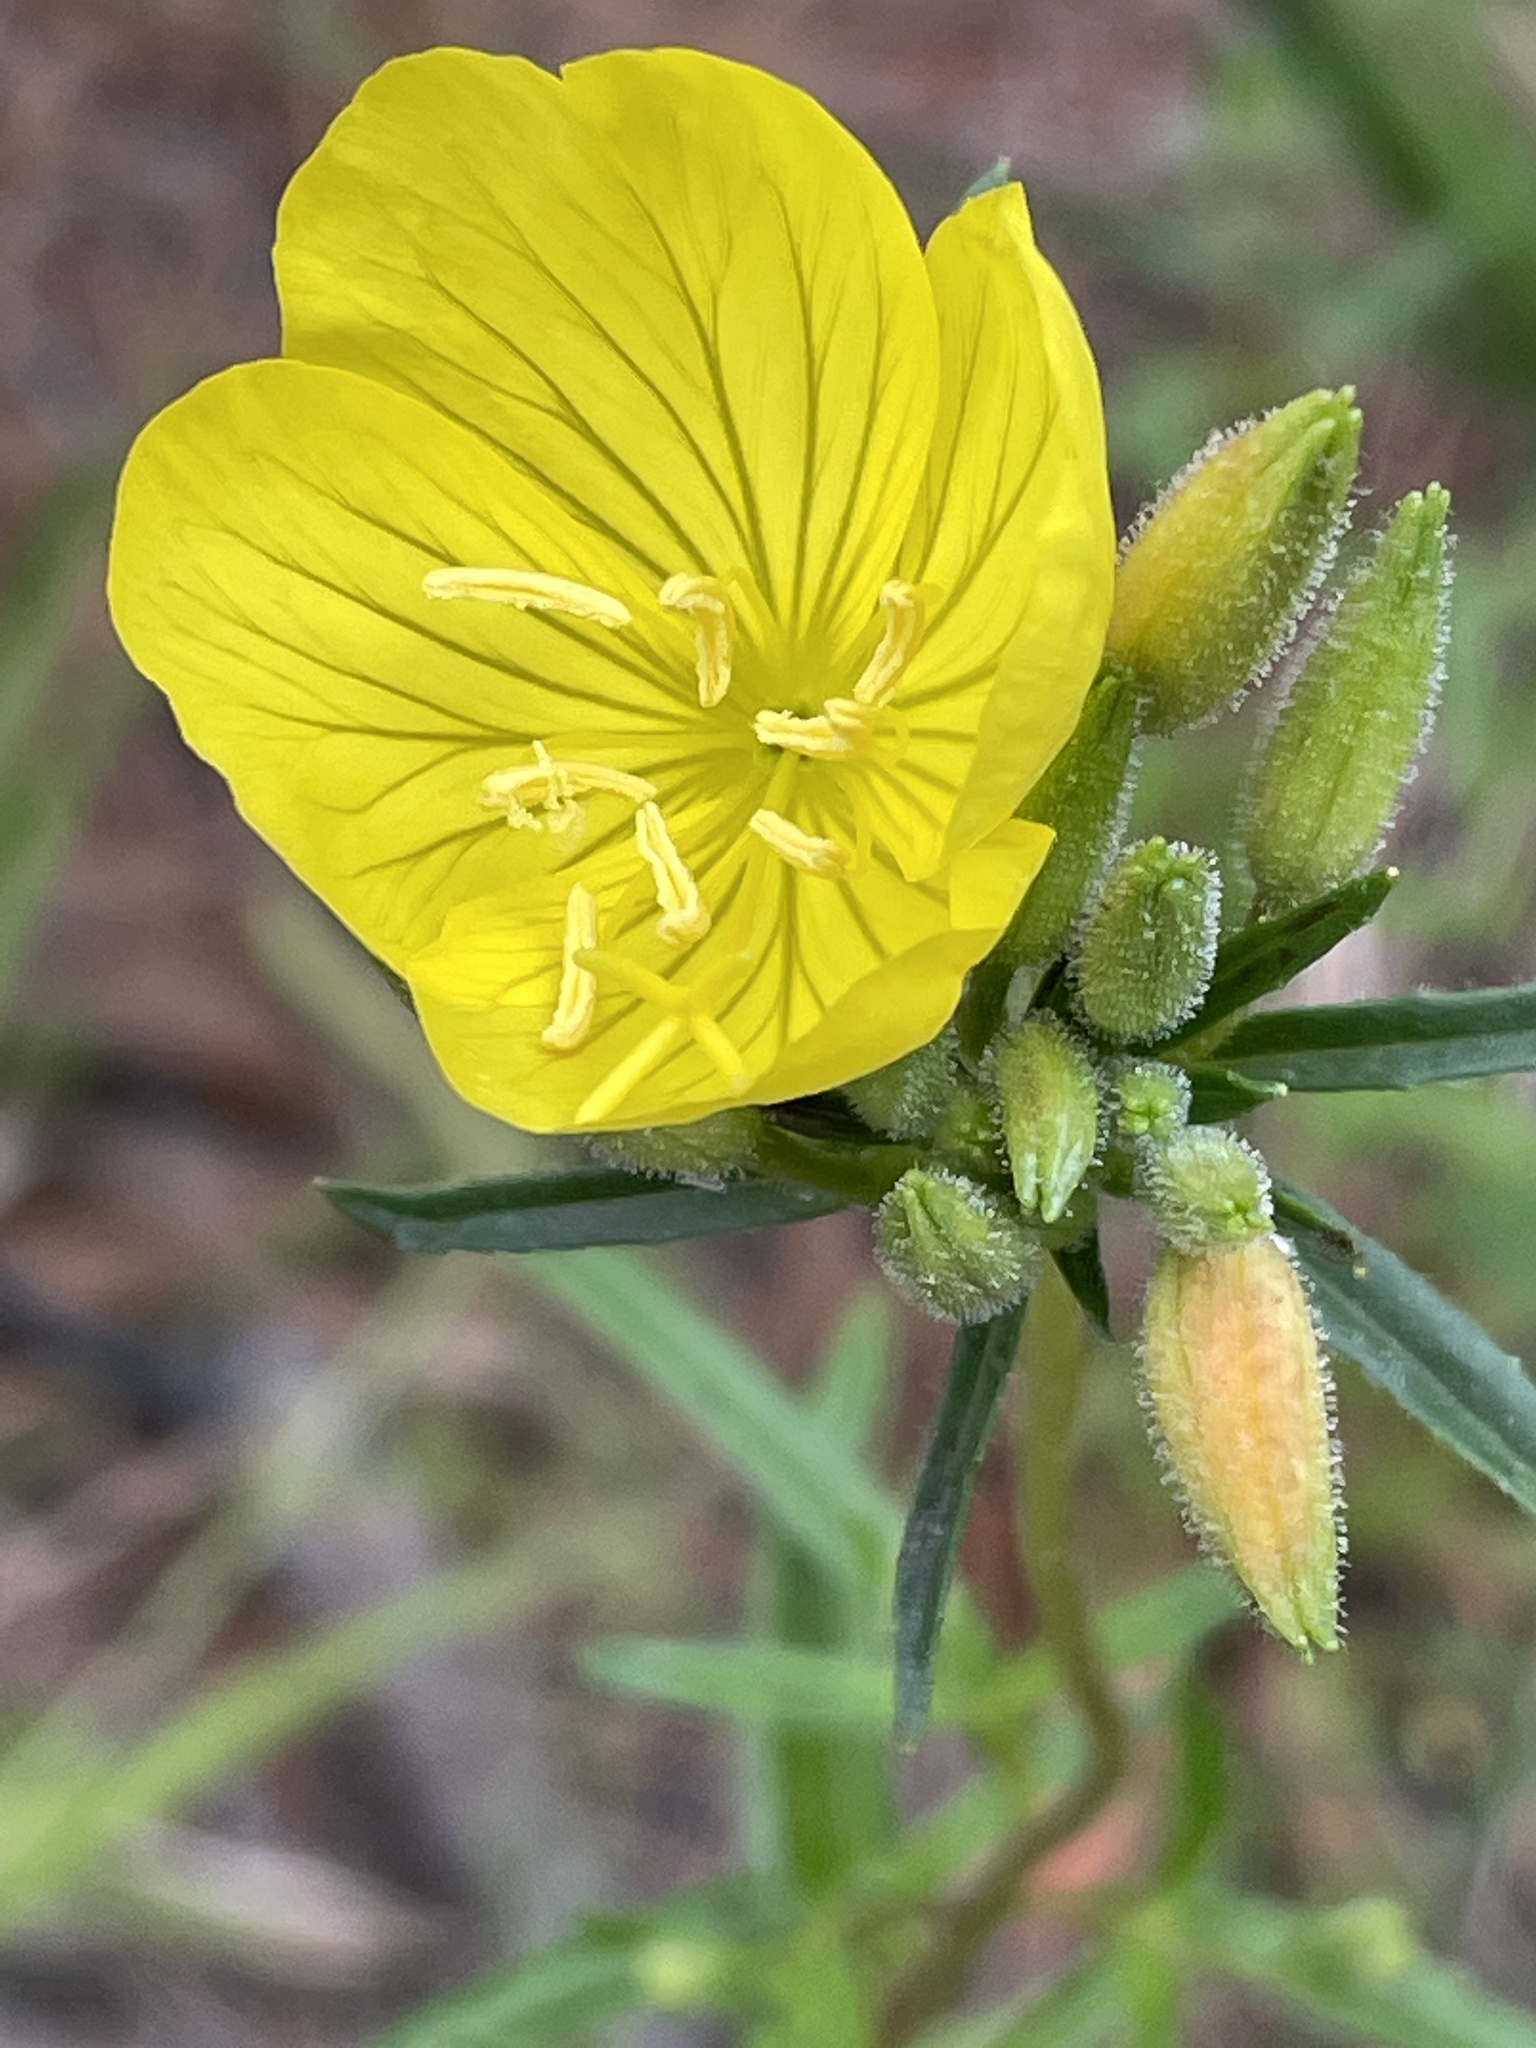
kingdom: Plantae
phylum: Tracheophyta
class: Magnoliopsida
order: Myrtales
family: Onagraceae
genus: Oenothera
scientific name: Oenothera fruticosa
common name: Southern sundrops
